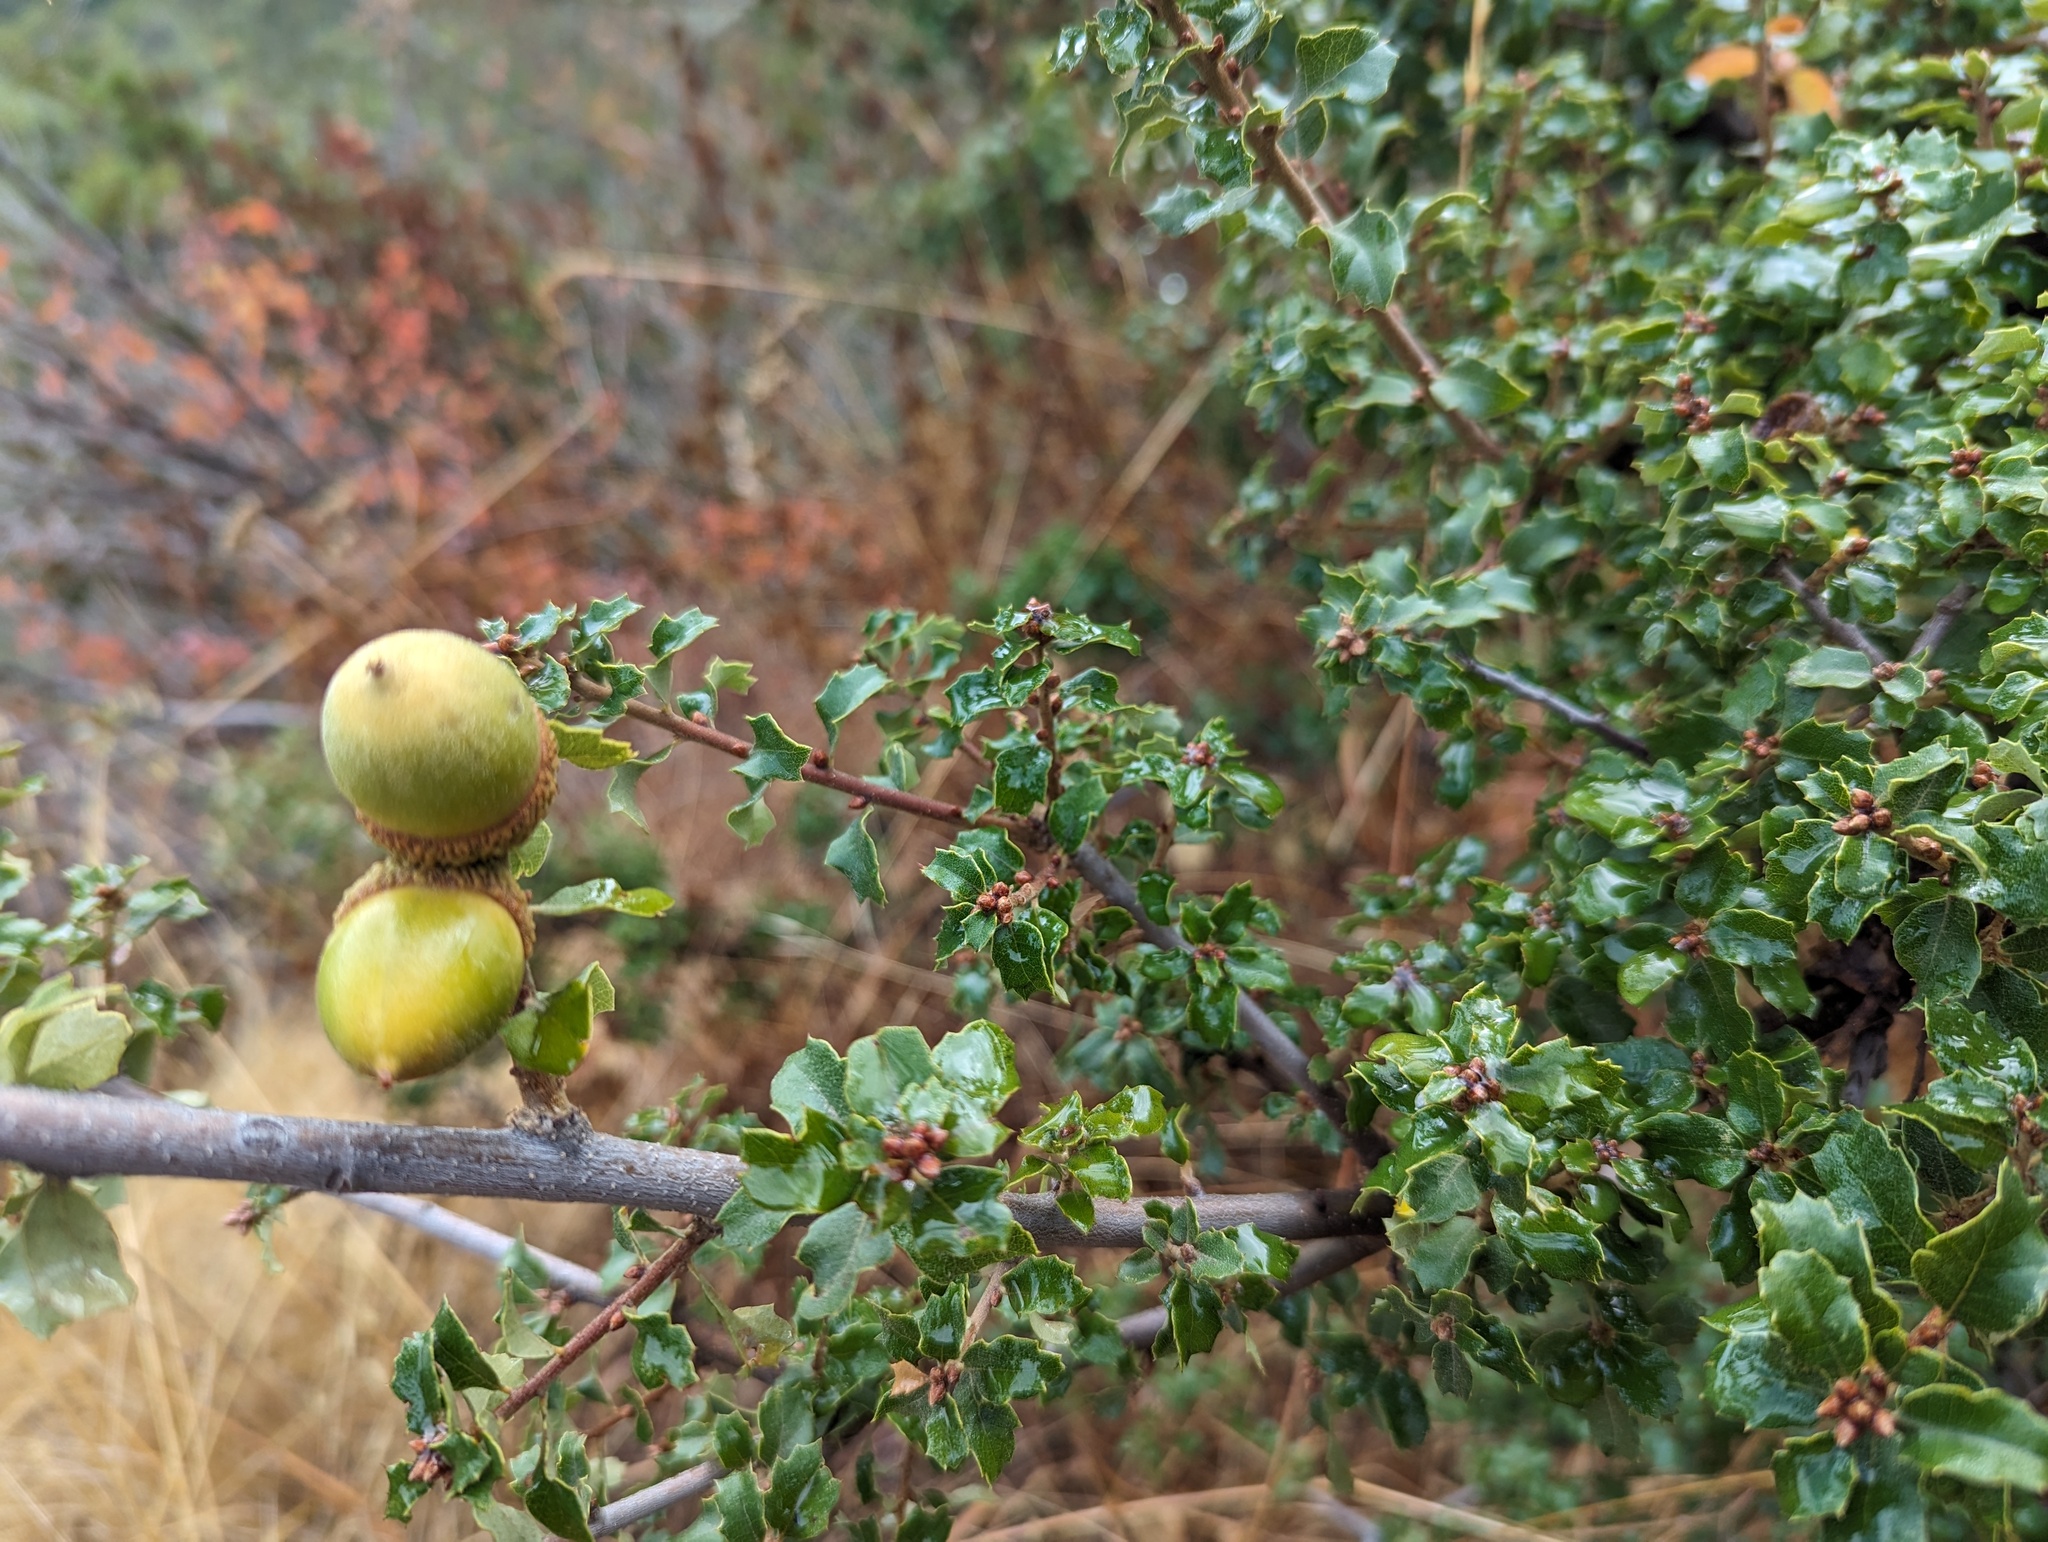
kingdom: Plantae
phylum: Tracheophyta
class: Magnoliopsida
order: Fagales
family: Fagaceae
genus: Quercus
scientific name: Quercus berberidifolia
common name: California scrub oak
